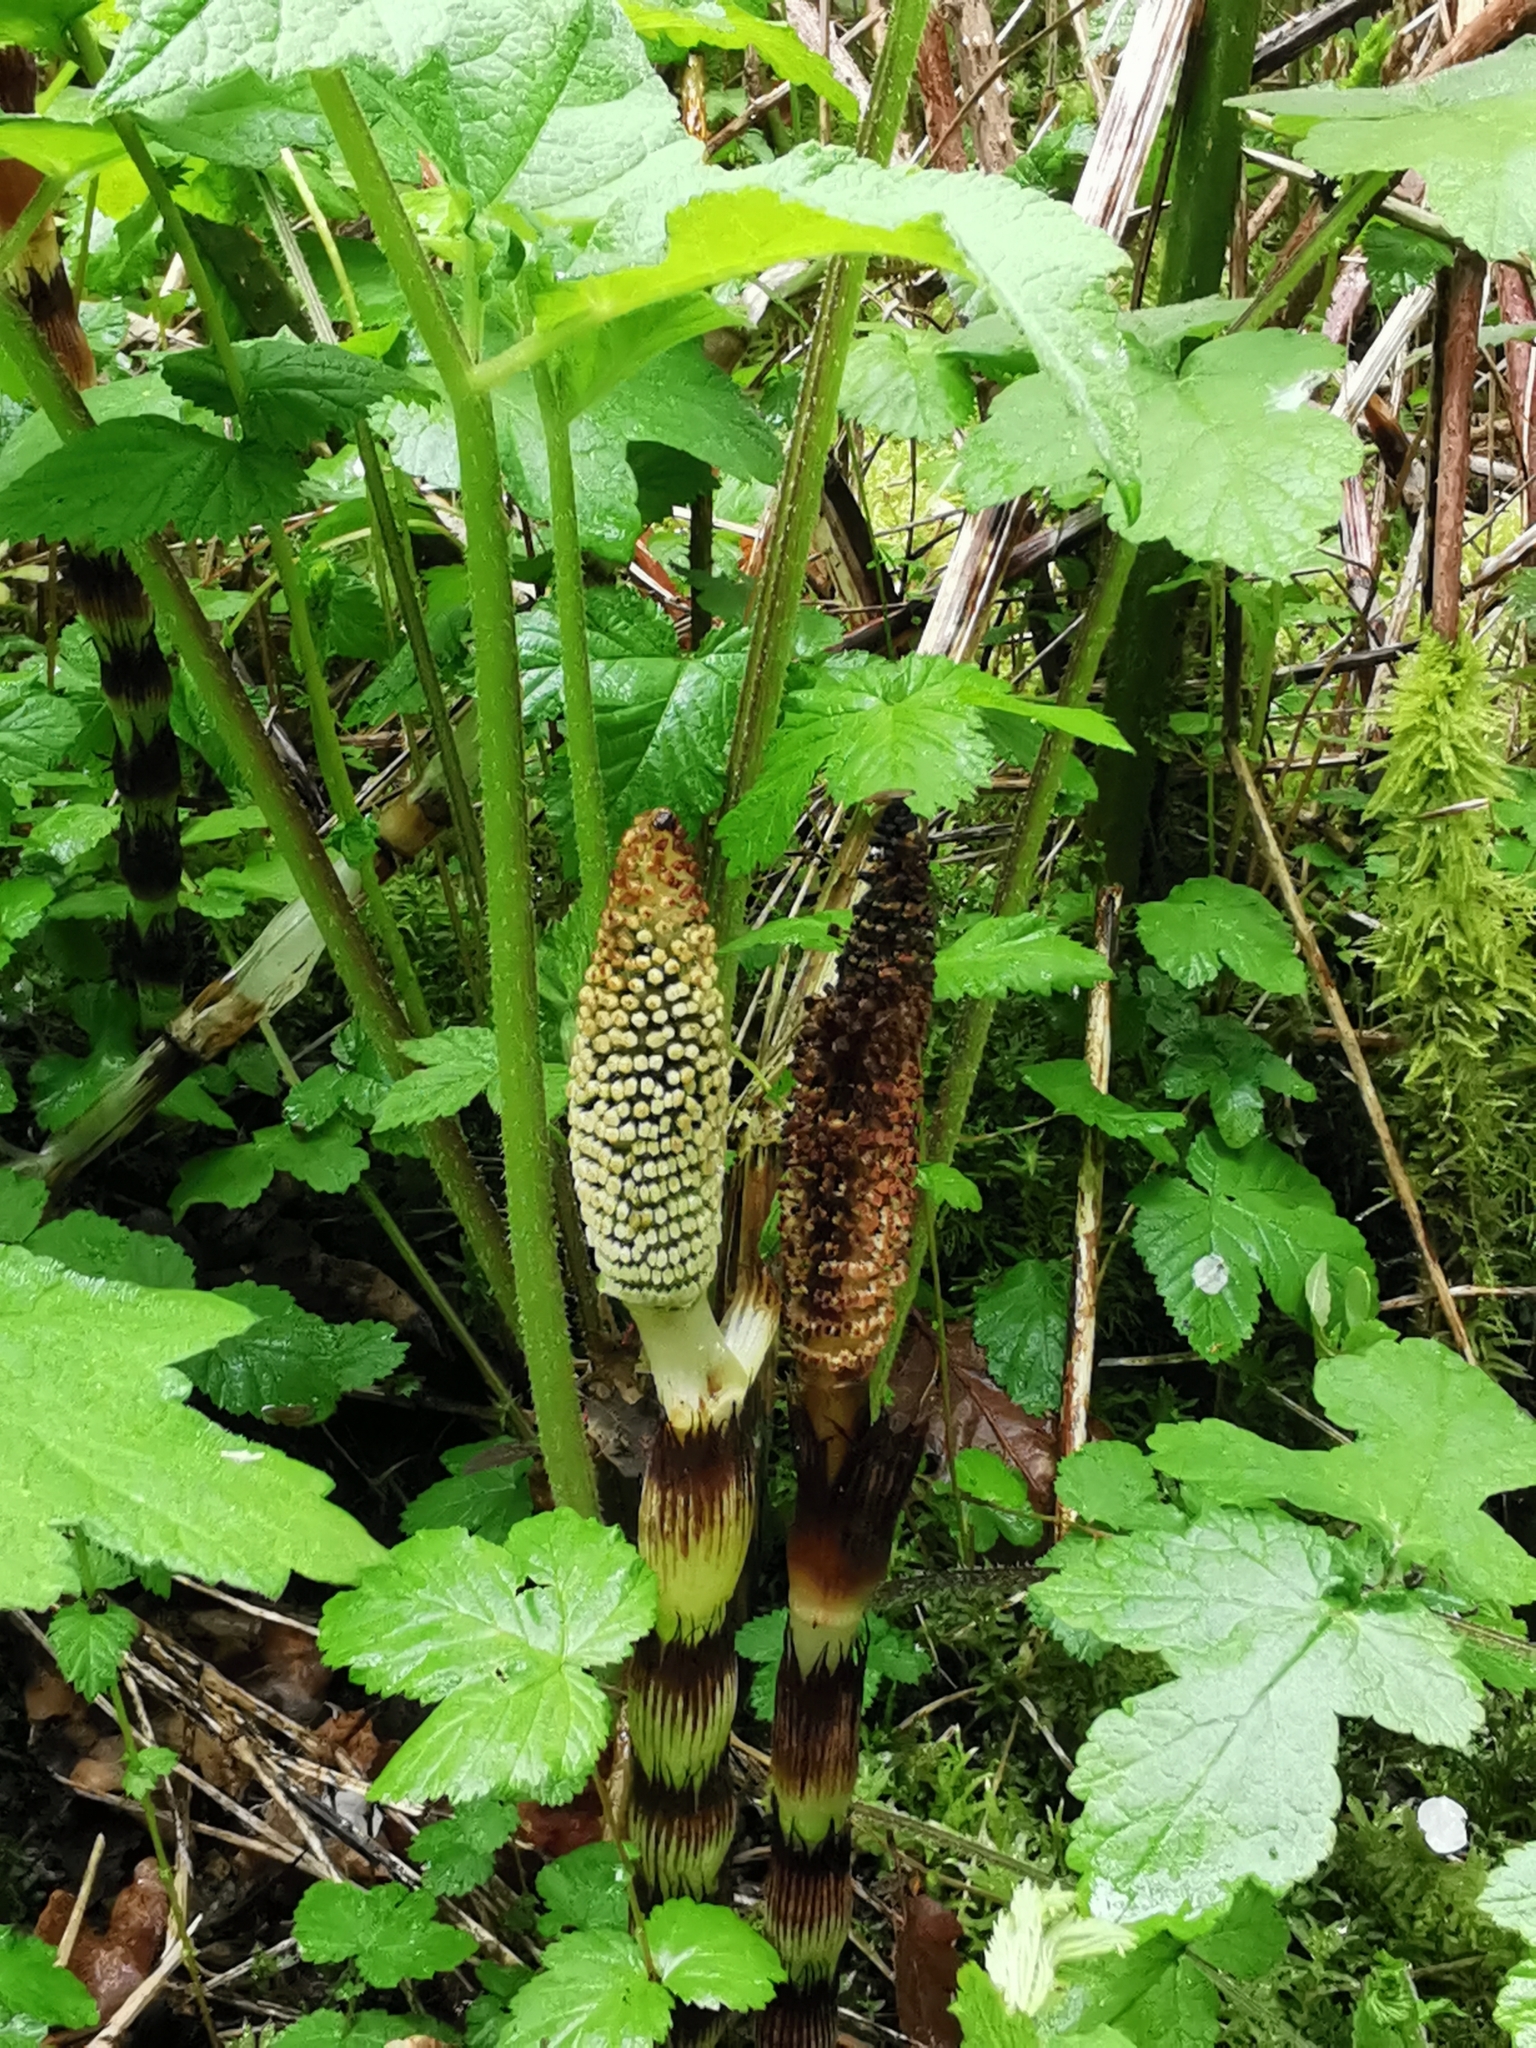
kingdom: Plantae
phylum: Tracheophyta
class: Polypodiopsida
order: Equisetales
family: Equisetaceae
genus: Equisetum
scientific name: Equisetum telmateia
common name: Great horsetail
